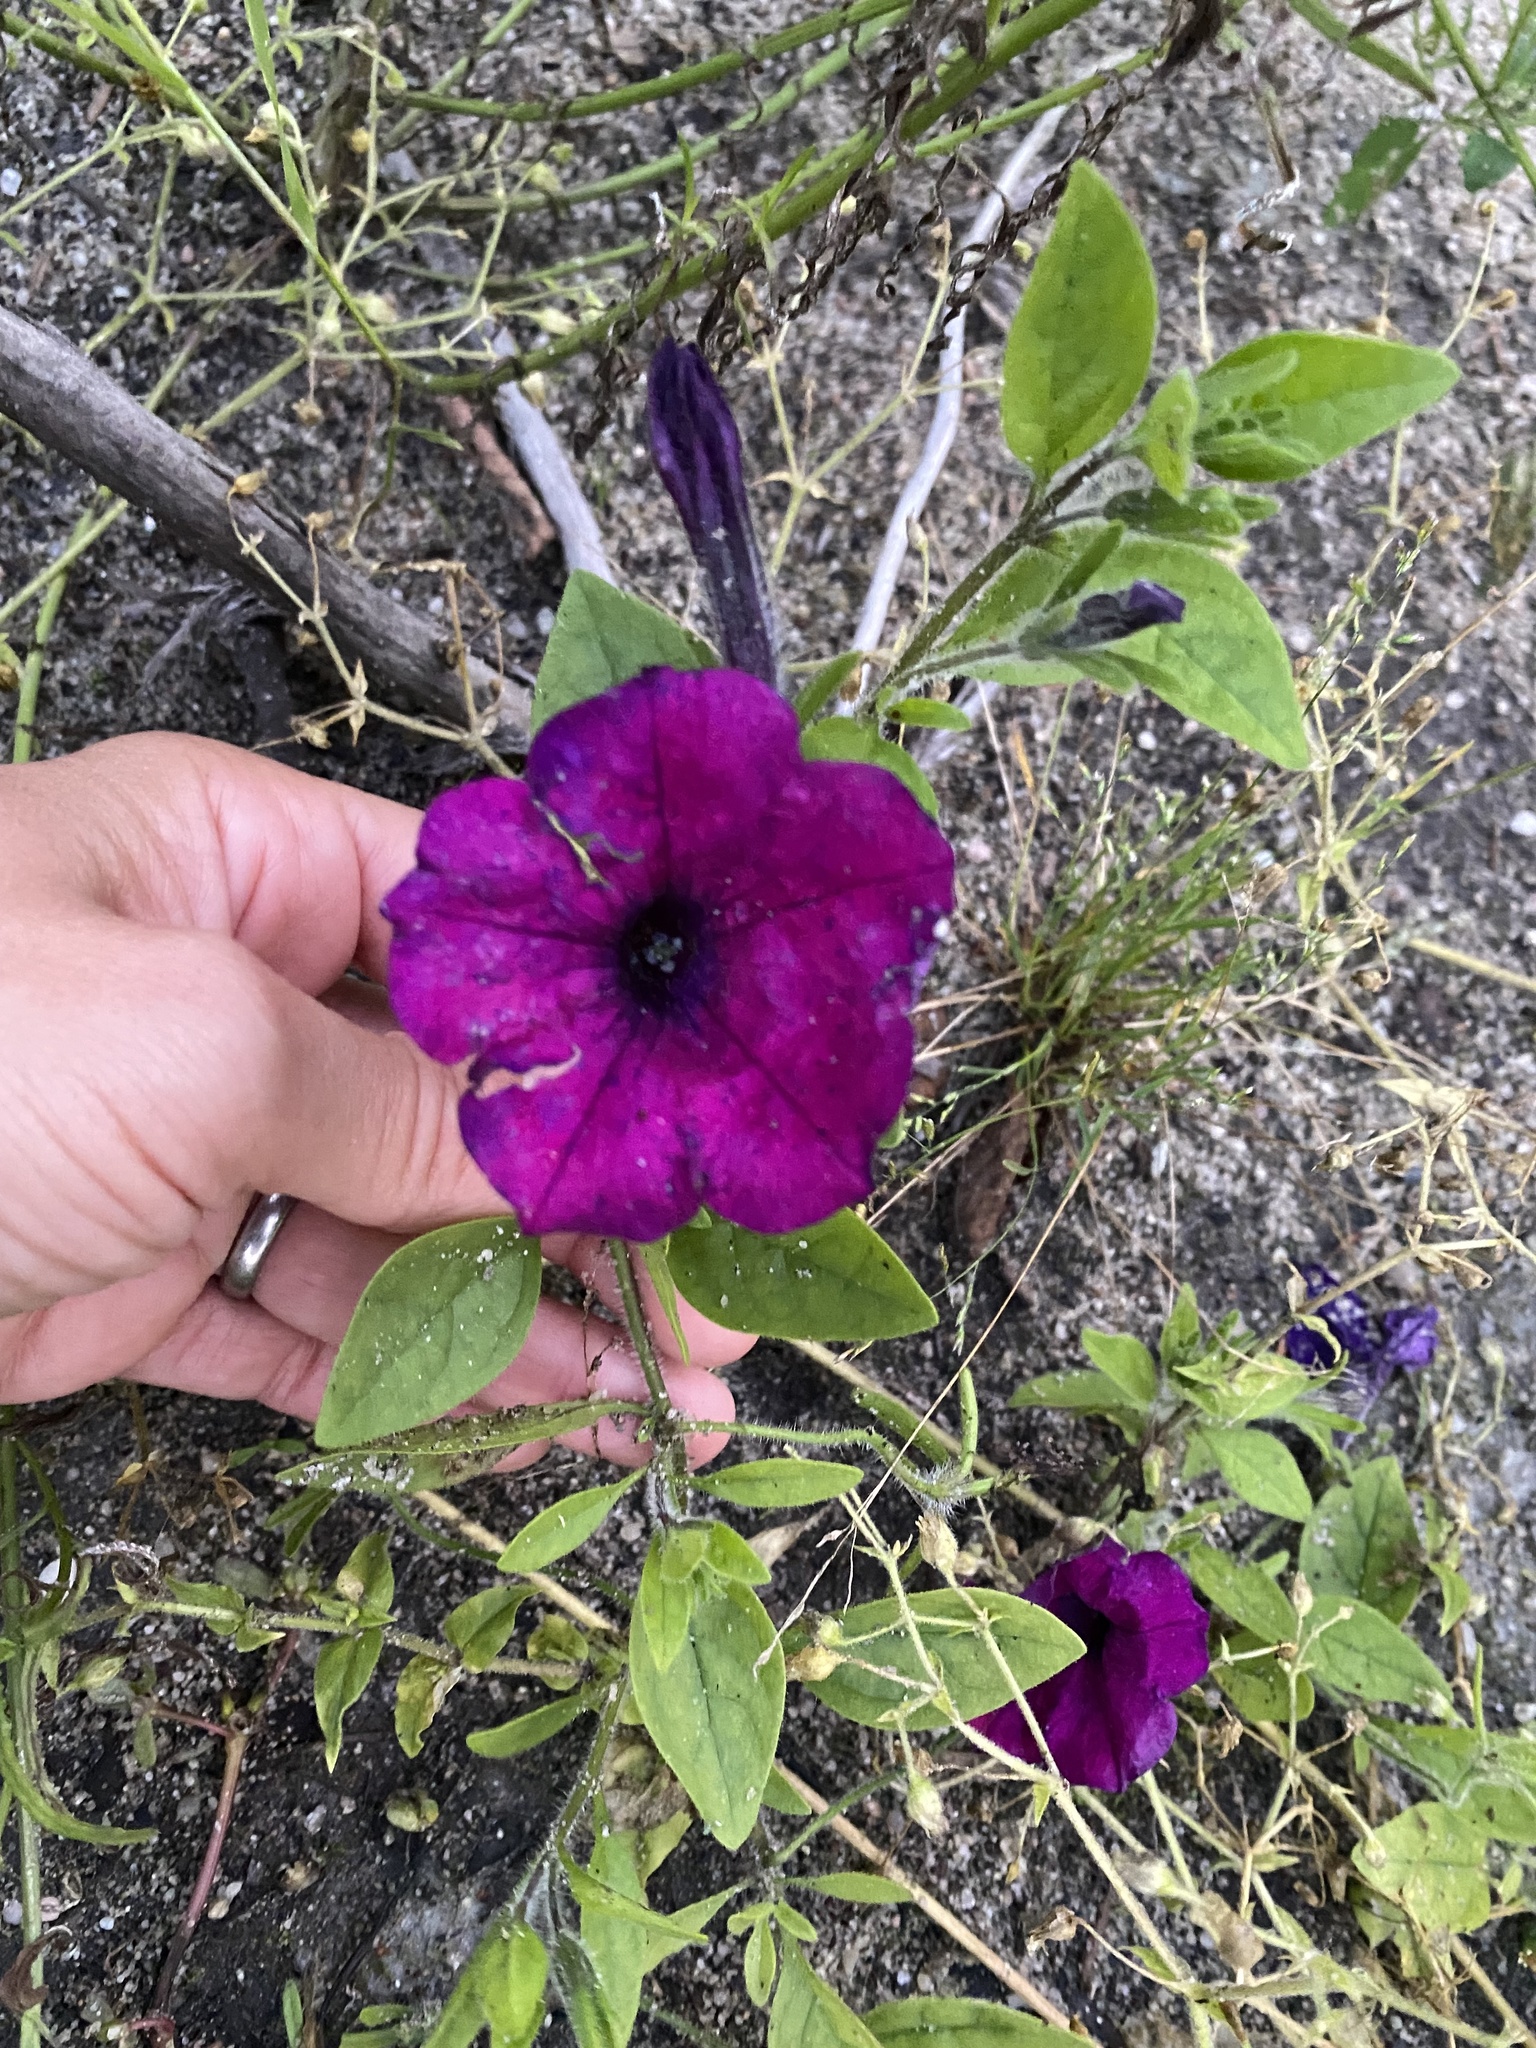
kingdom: Plantae
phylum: Tracheophyta
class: Magnoliopsida
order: Solanales
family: Solanaceae
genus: Petunia
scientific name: Petunia atkinsiana
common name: Petunia
